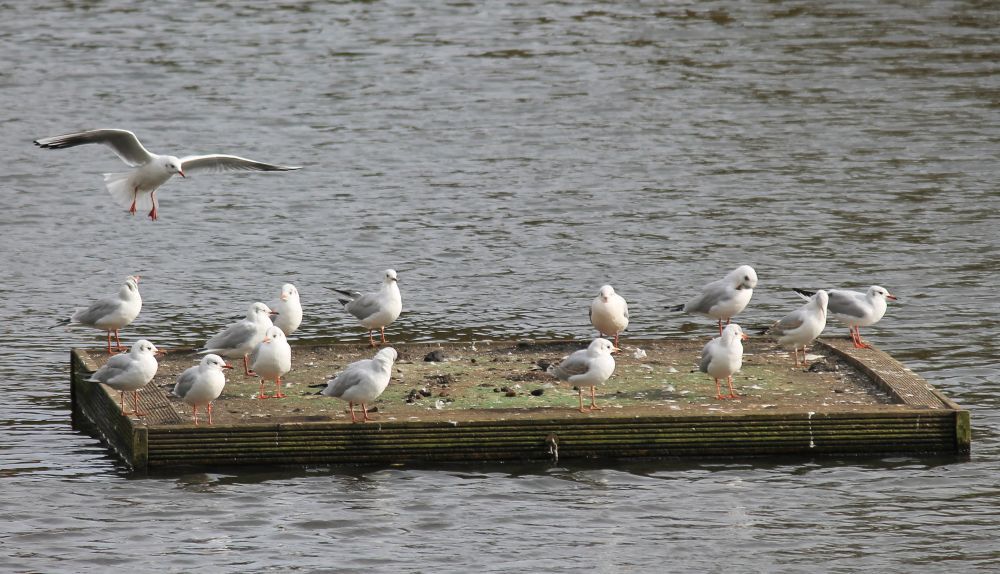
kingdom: Animalia
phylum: Chordata
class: Aves
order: Charadriiformes
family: Laridae
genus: Chroicocephalus
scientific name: Chroicocephalus ridibundus
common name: Black-headed gull
